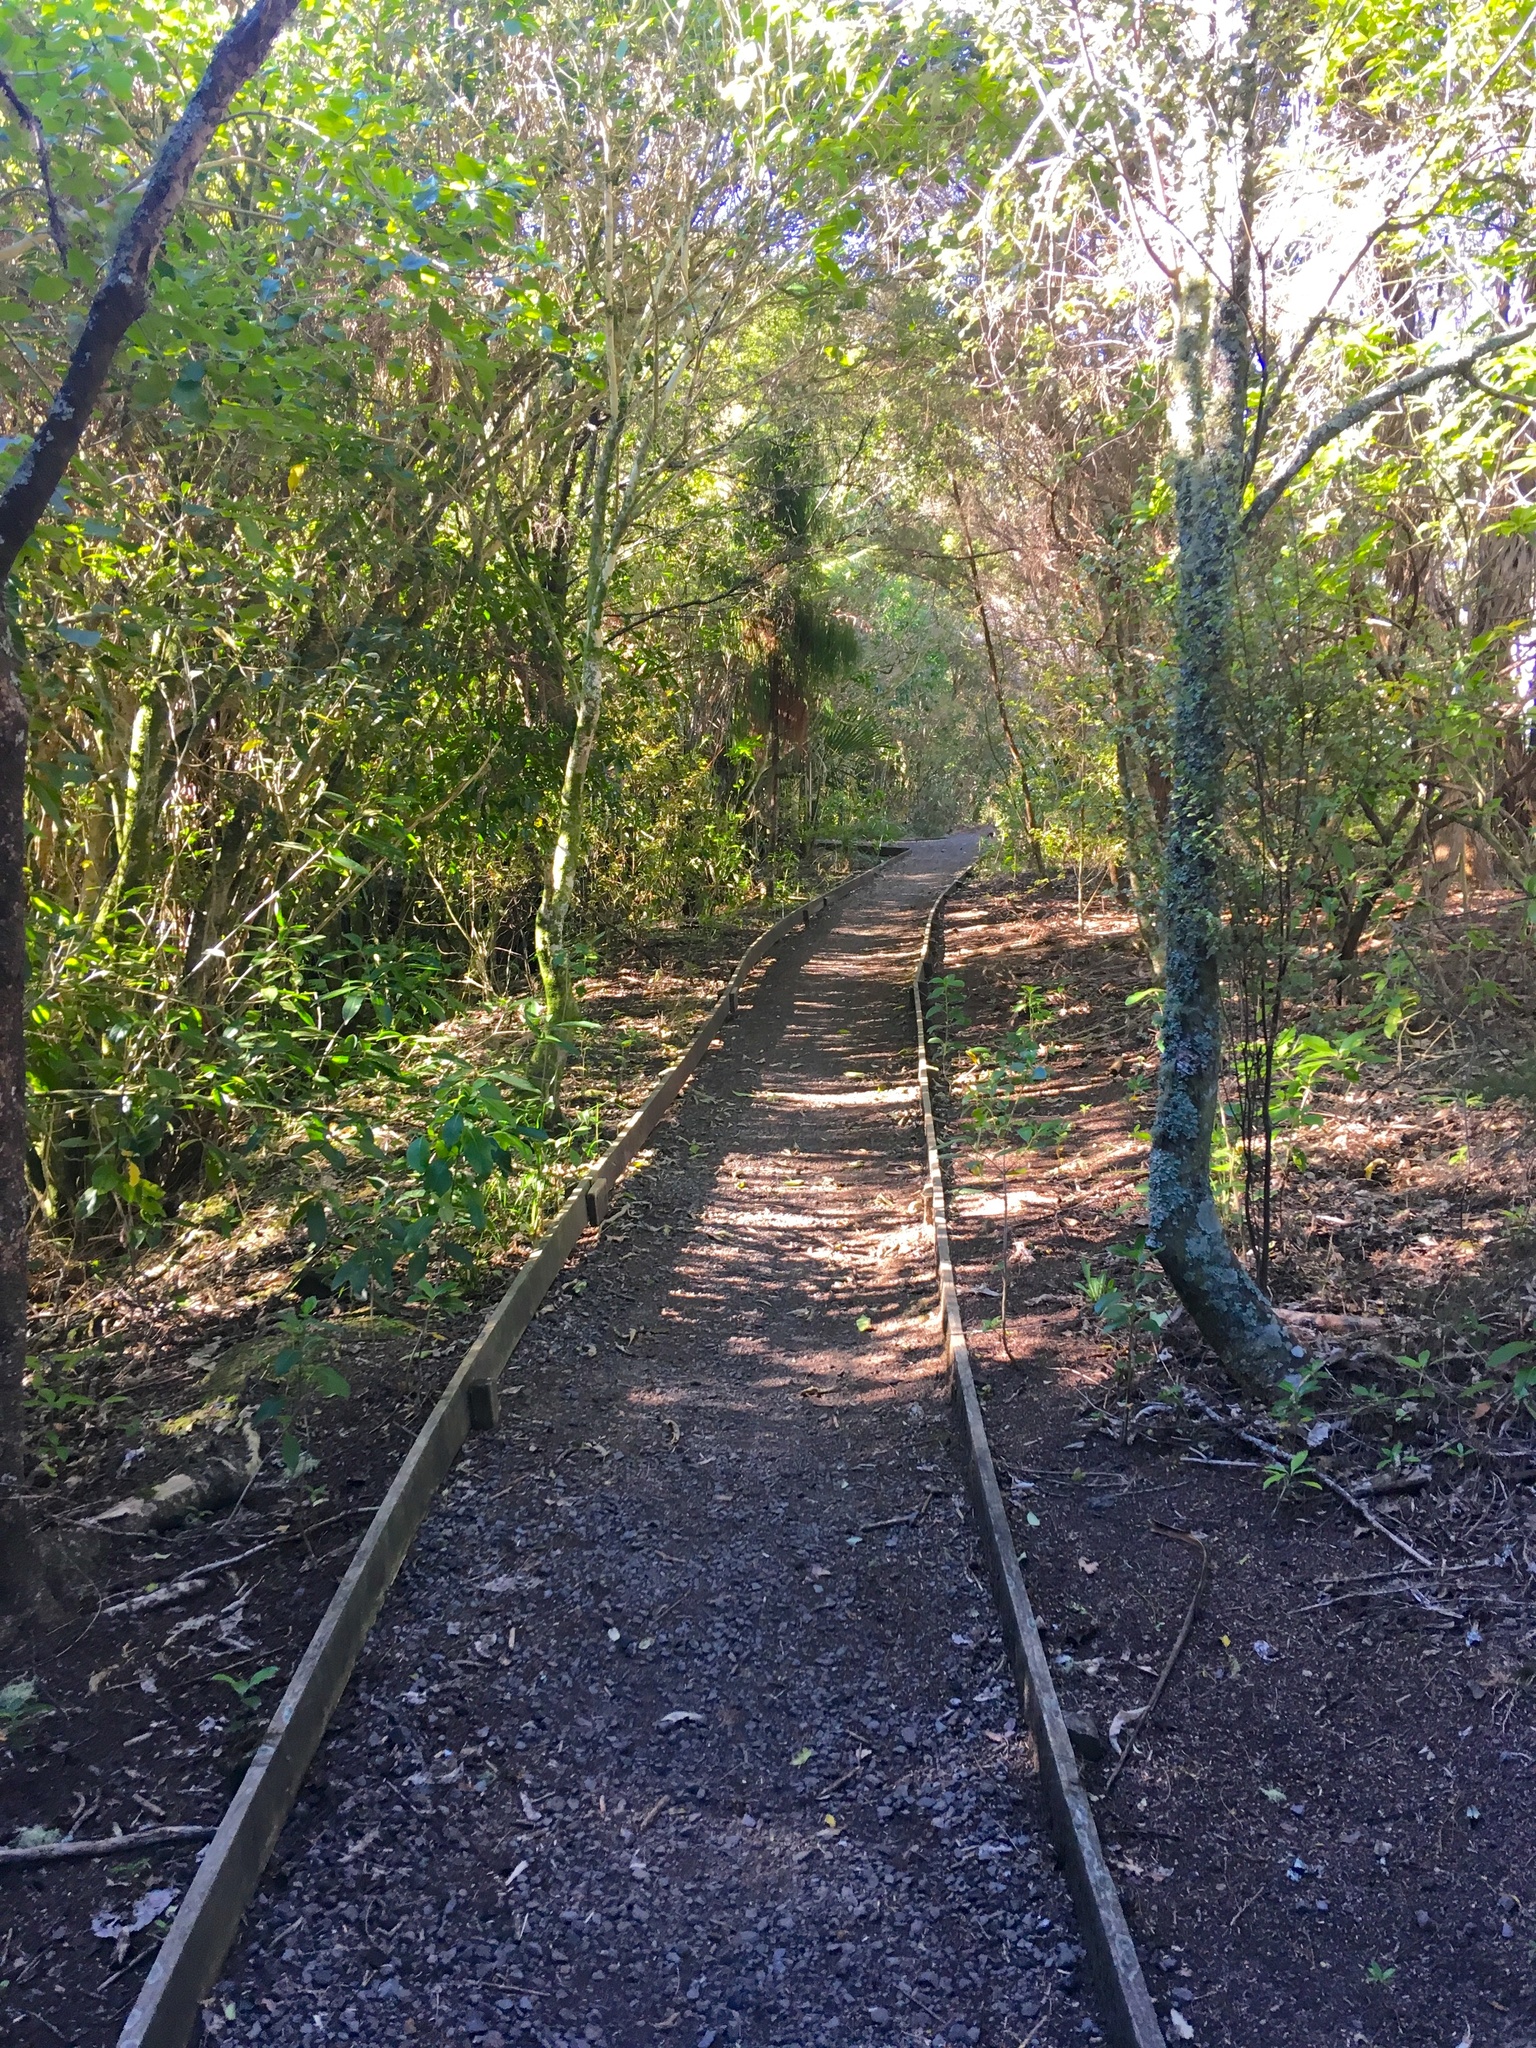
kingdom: Plantae
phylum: Tracheophyta
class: Magnoliopsida
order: Malpighiales
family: Violaceae
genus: Melicytus
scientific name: Melicytus ramiflorus
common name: Mahoe
